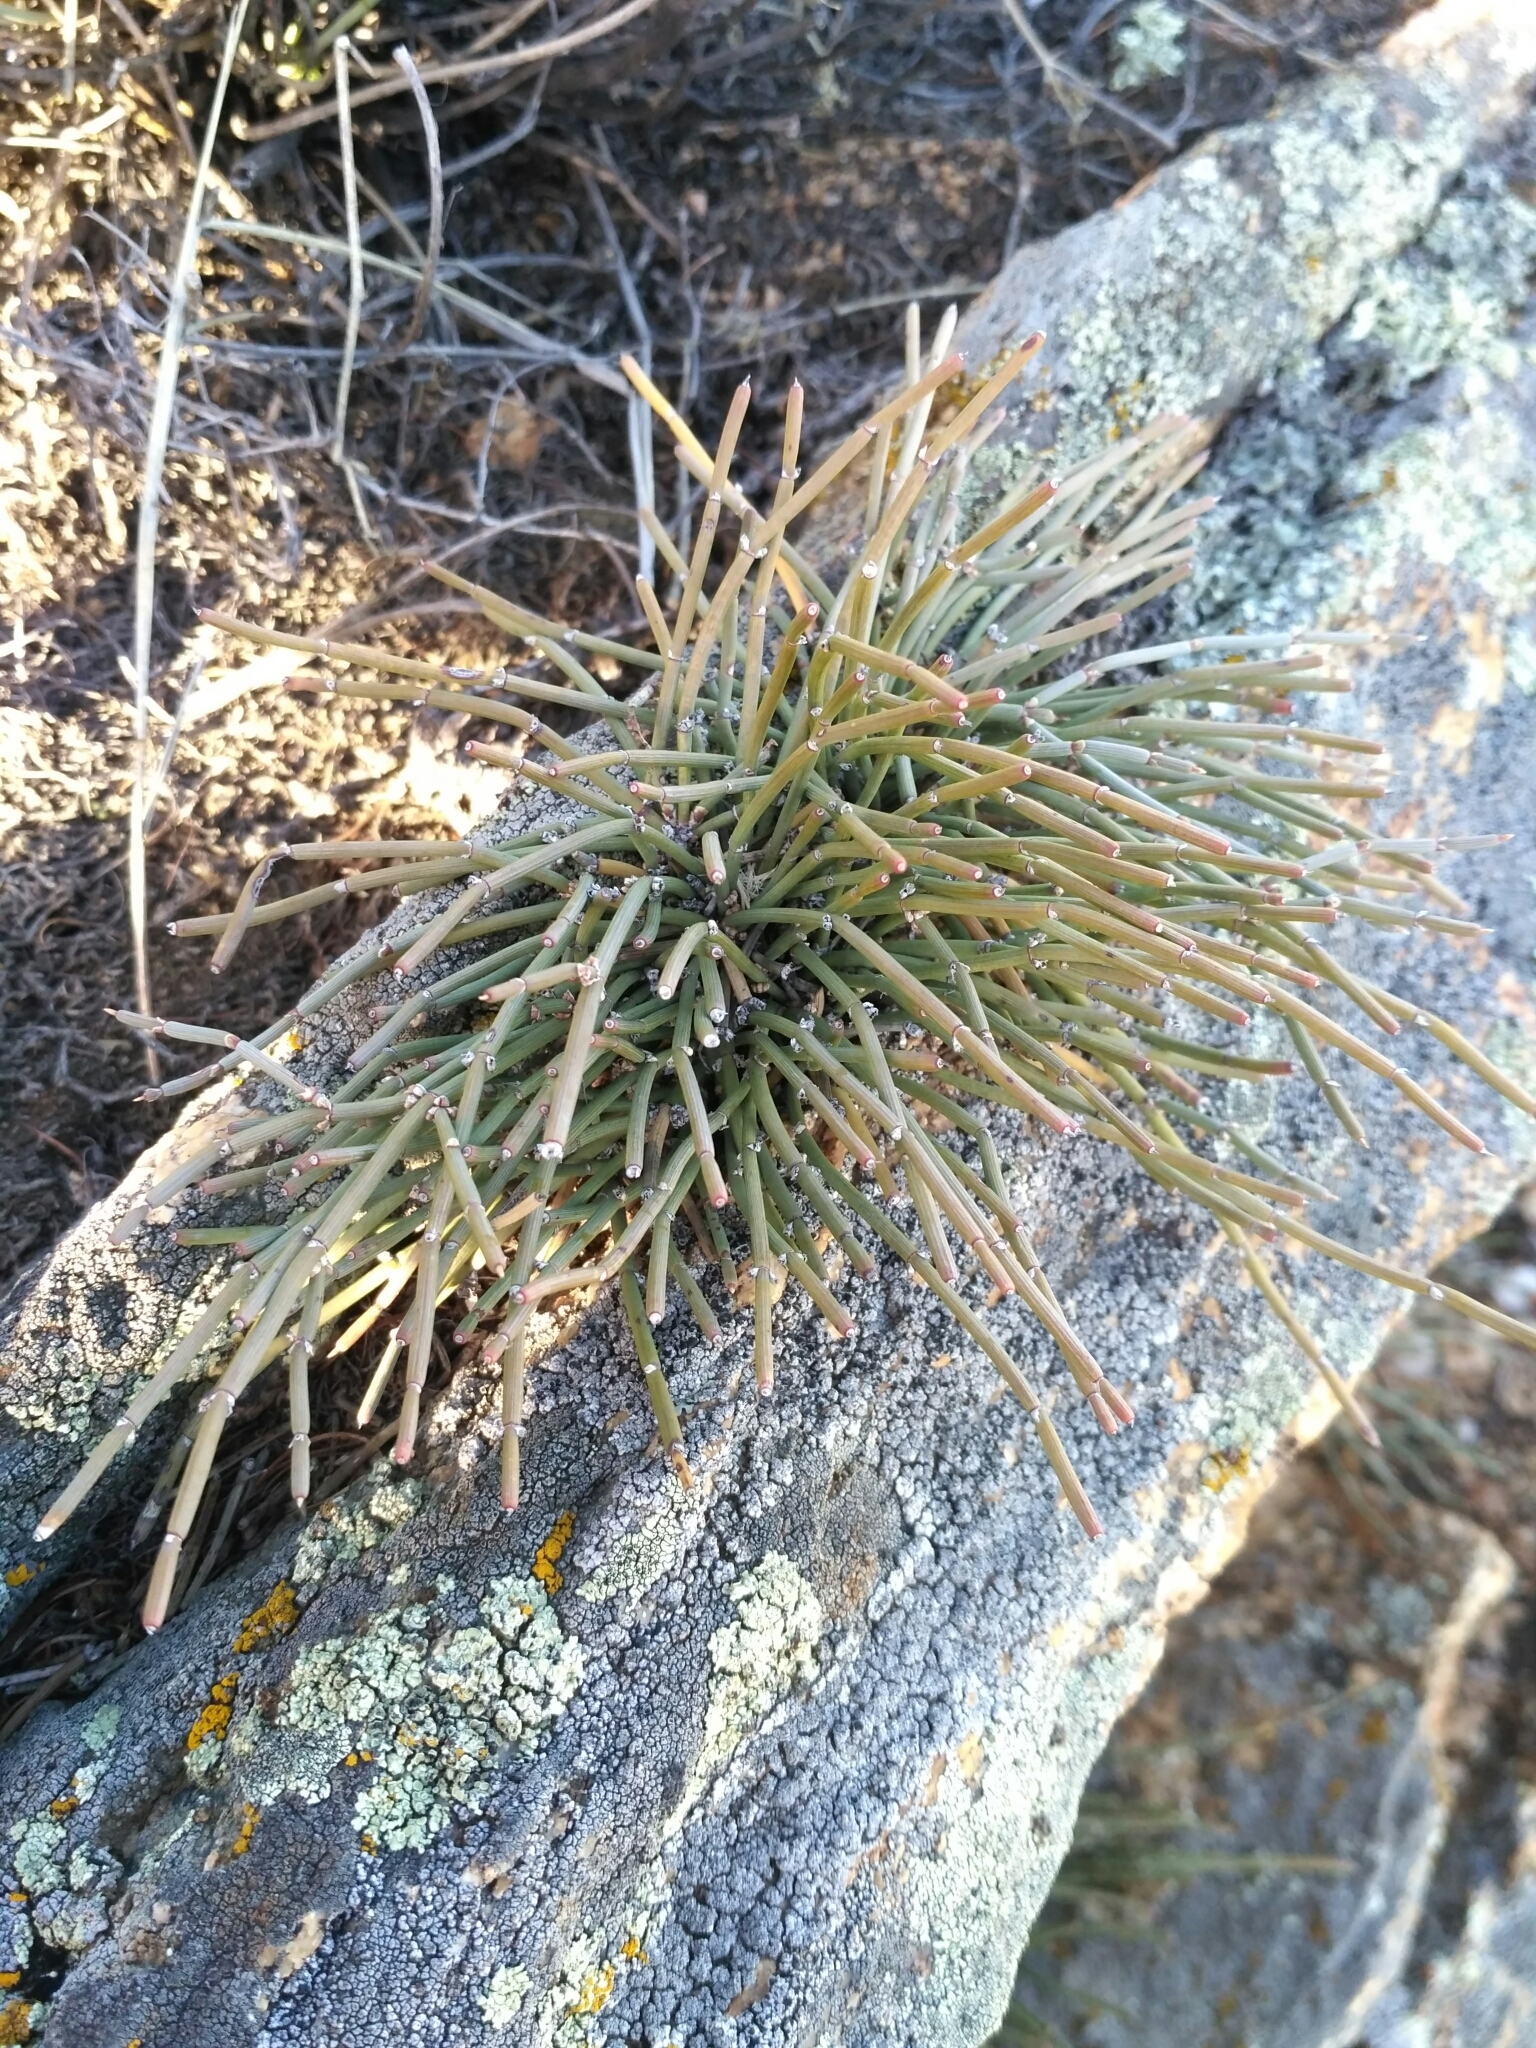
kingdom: Plantae
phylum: Tracheophyta
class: Gnetopsida
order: Ephedrales
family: Ephedraceae
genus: Ephedra
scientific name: Ephedra monosperma
